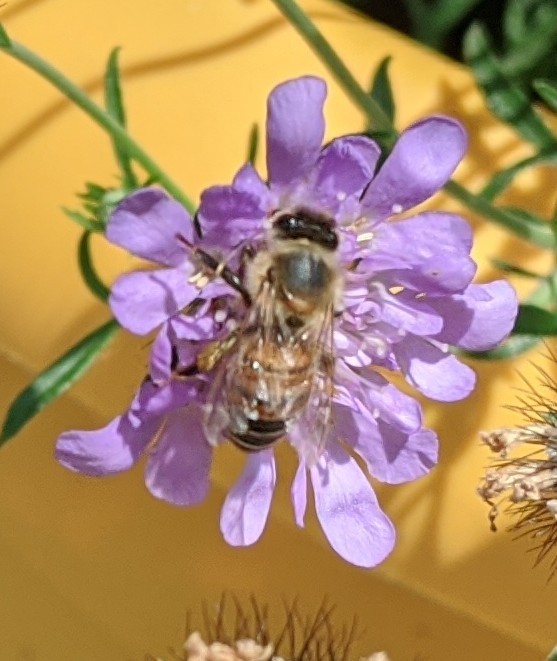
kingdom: Animalia
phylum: Arthropoda
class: Insecta
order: Hymenoptera
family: Apidae
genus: Apis
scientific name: Apis mellifera
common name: Honey bee
